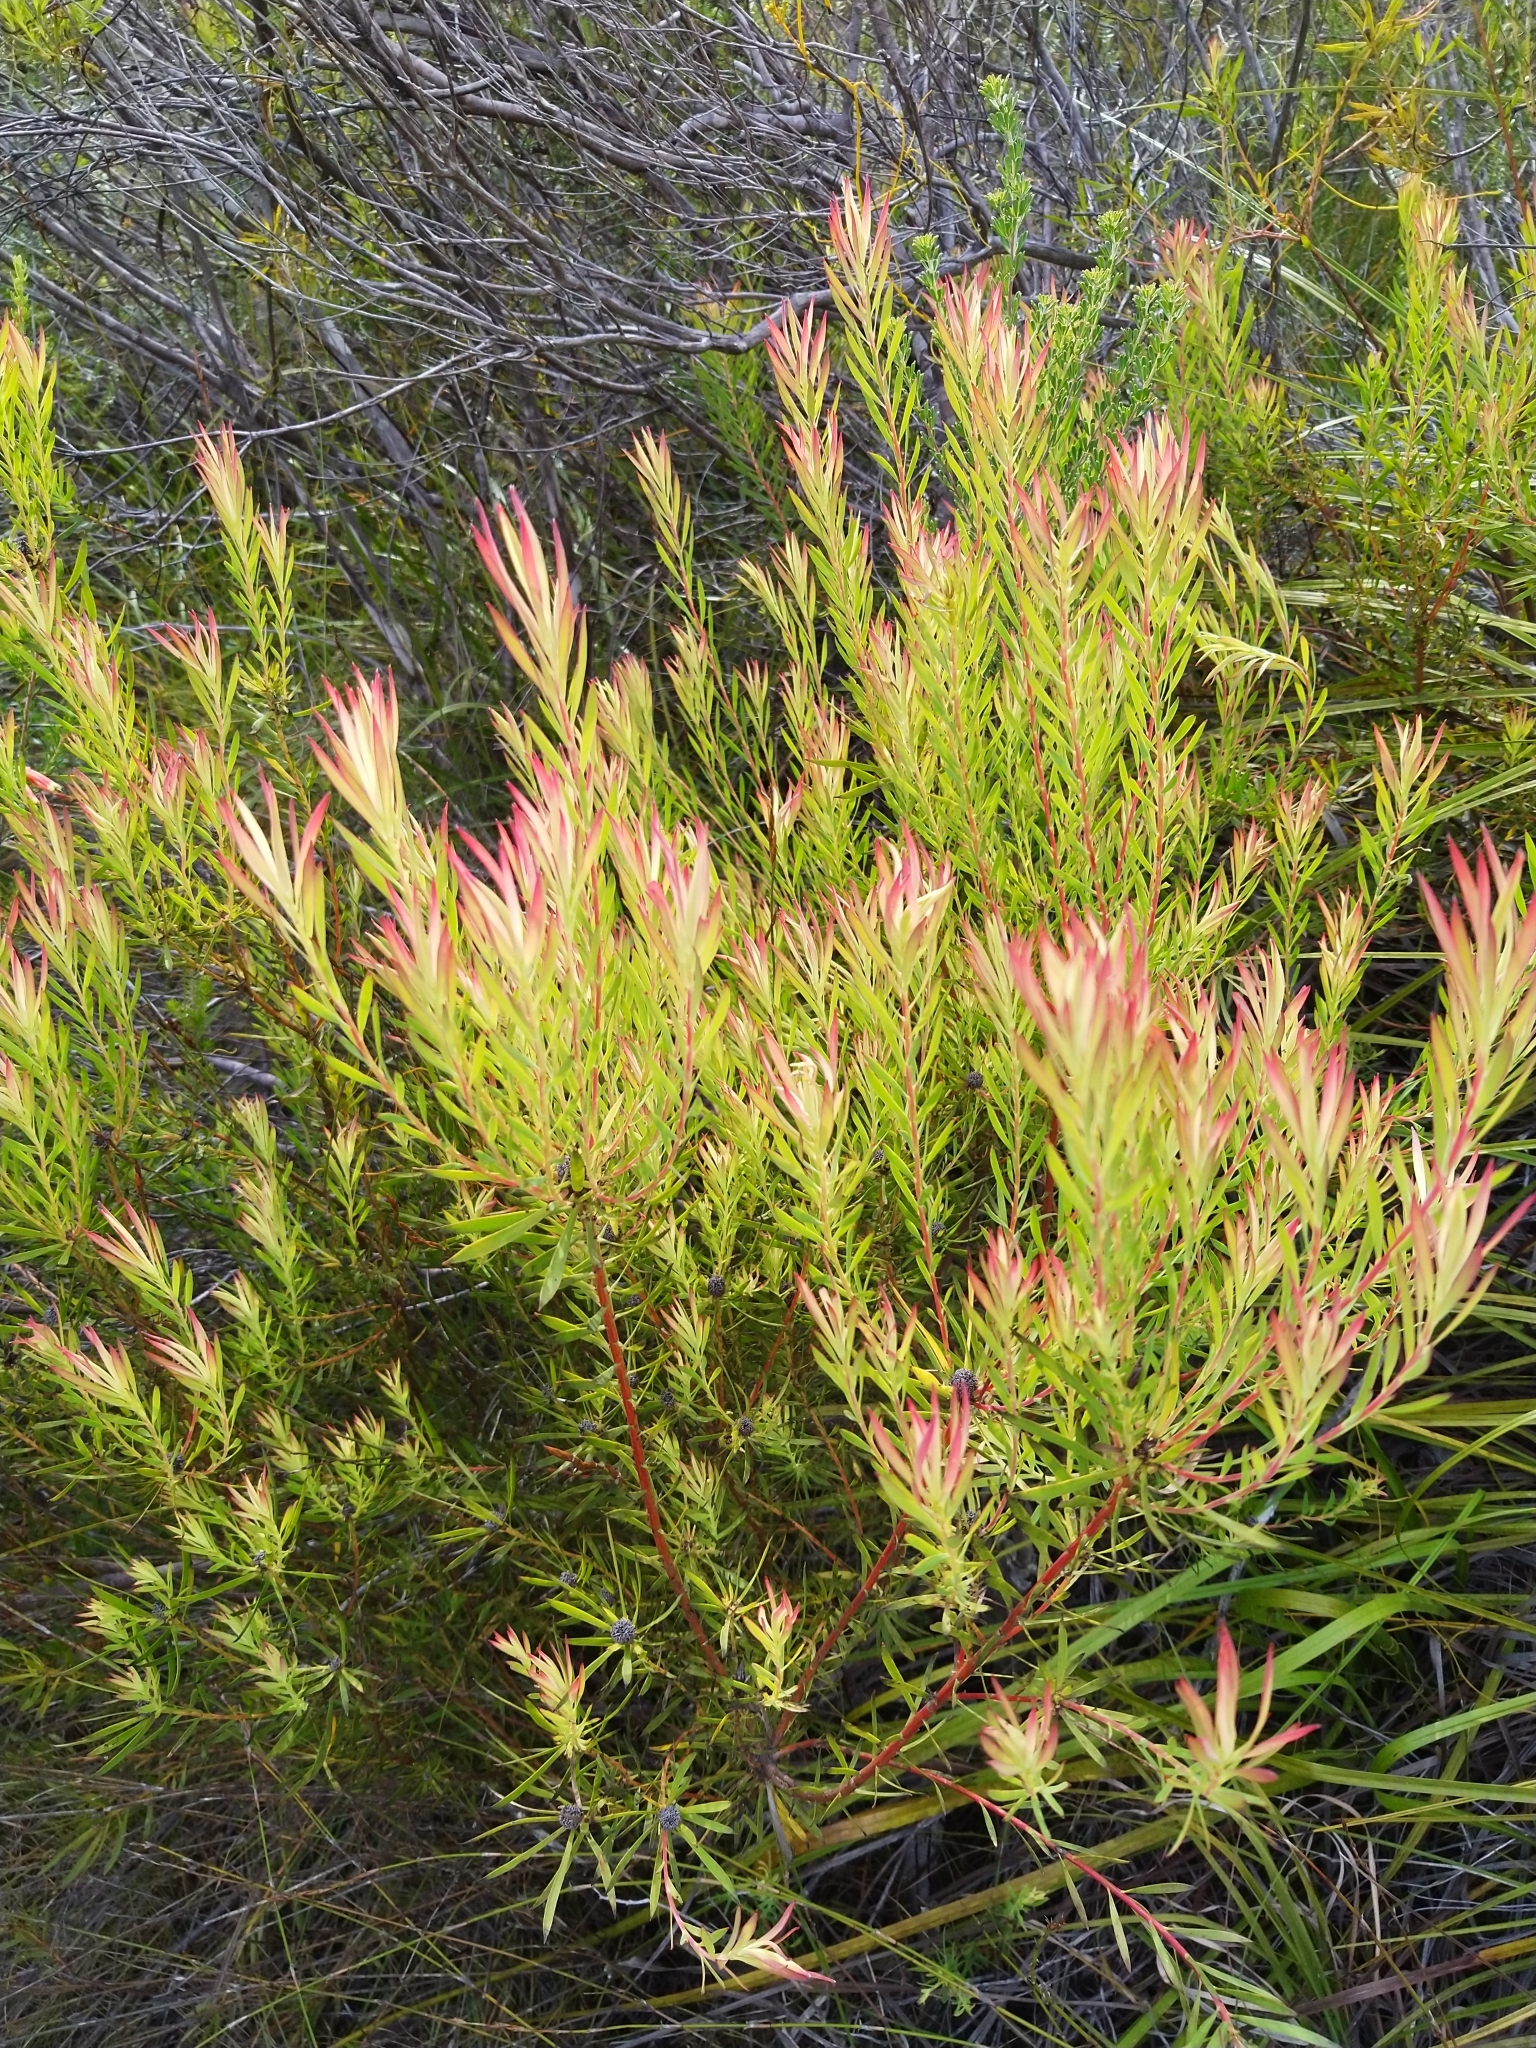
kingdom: Plantae
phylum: Tracheophyta
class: Magnoliopsida
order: Proteales
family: Proteaceae
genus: Leucadendron
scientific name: Leucadendron salignum
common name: Common sunshine conebush
